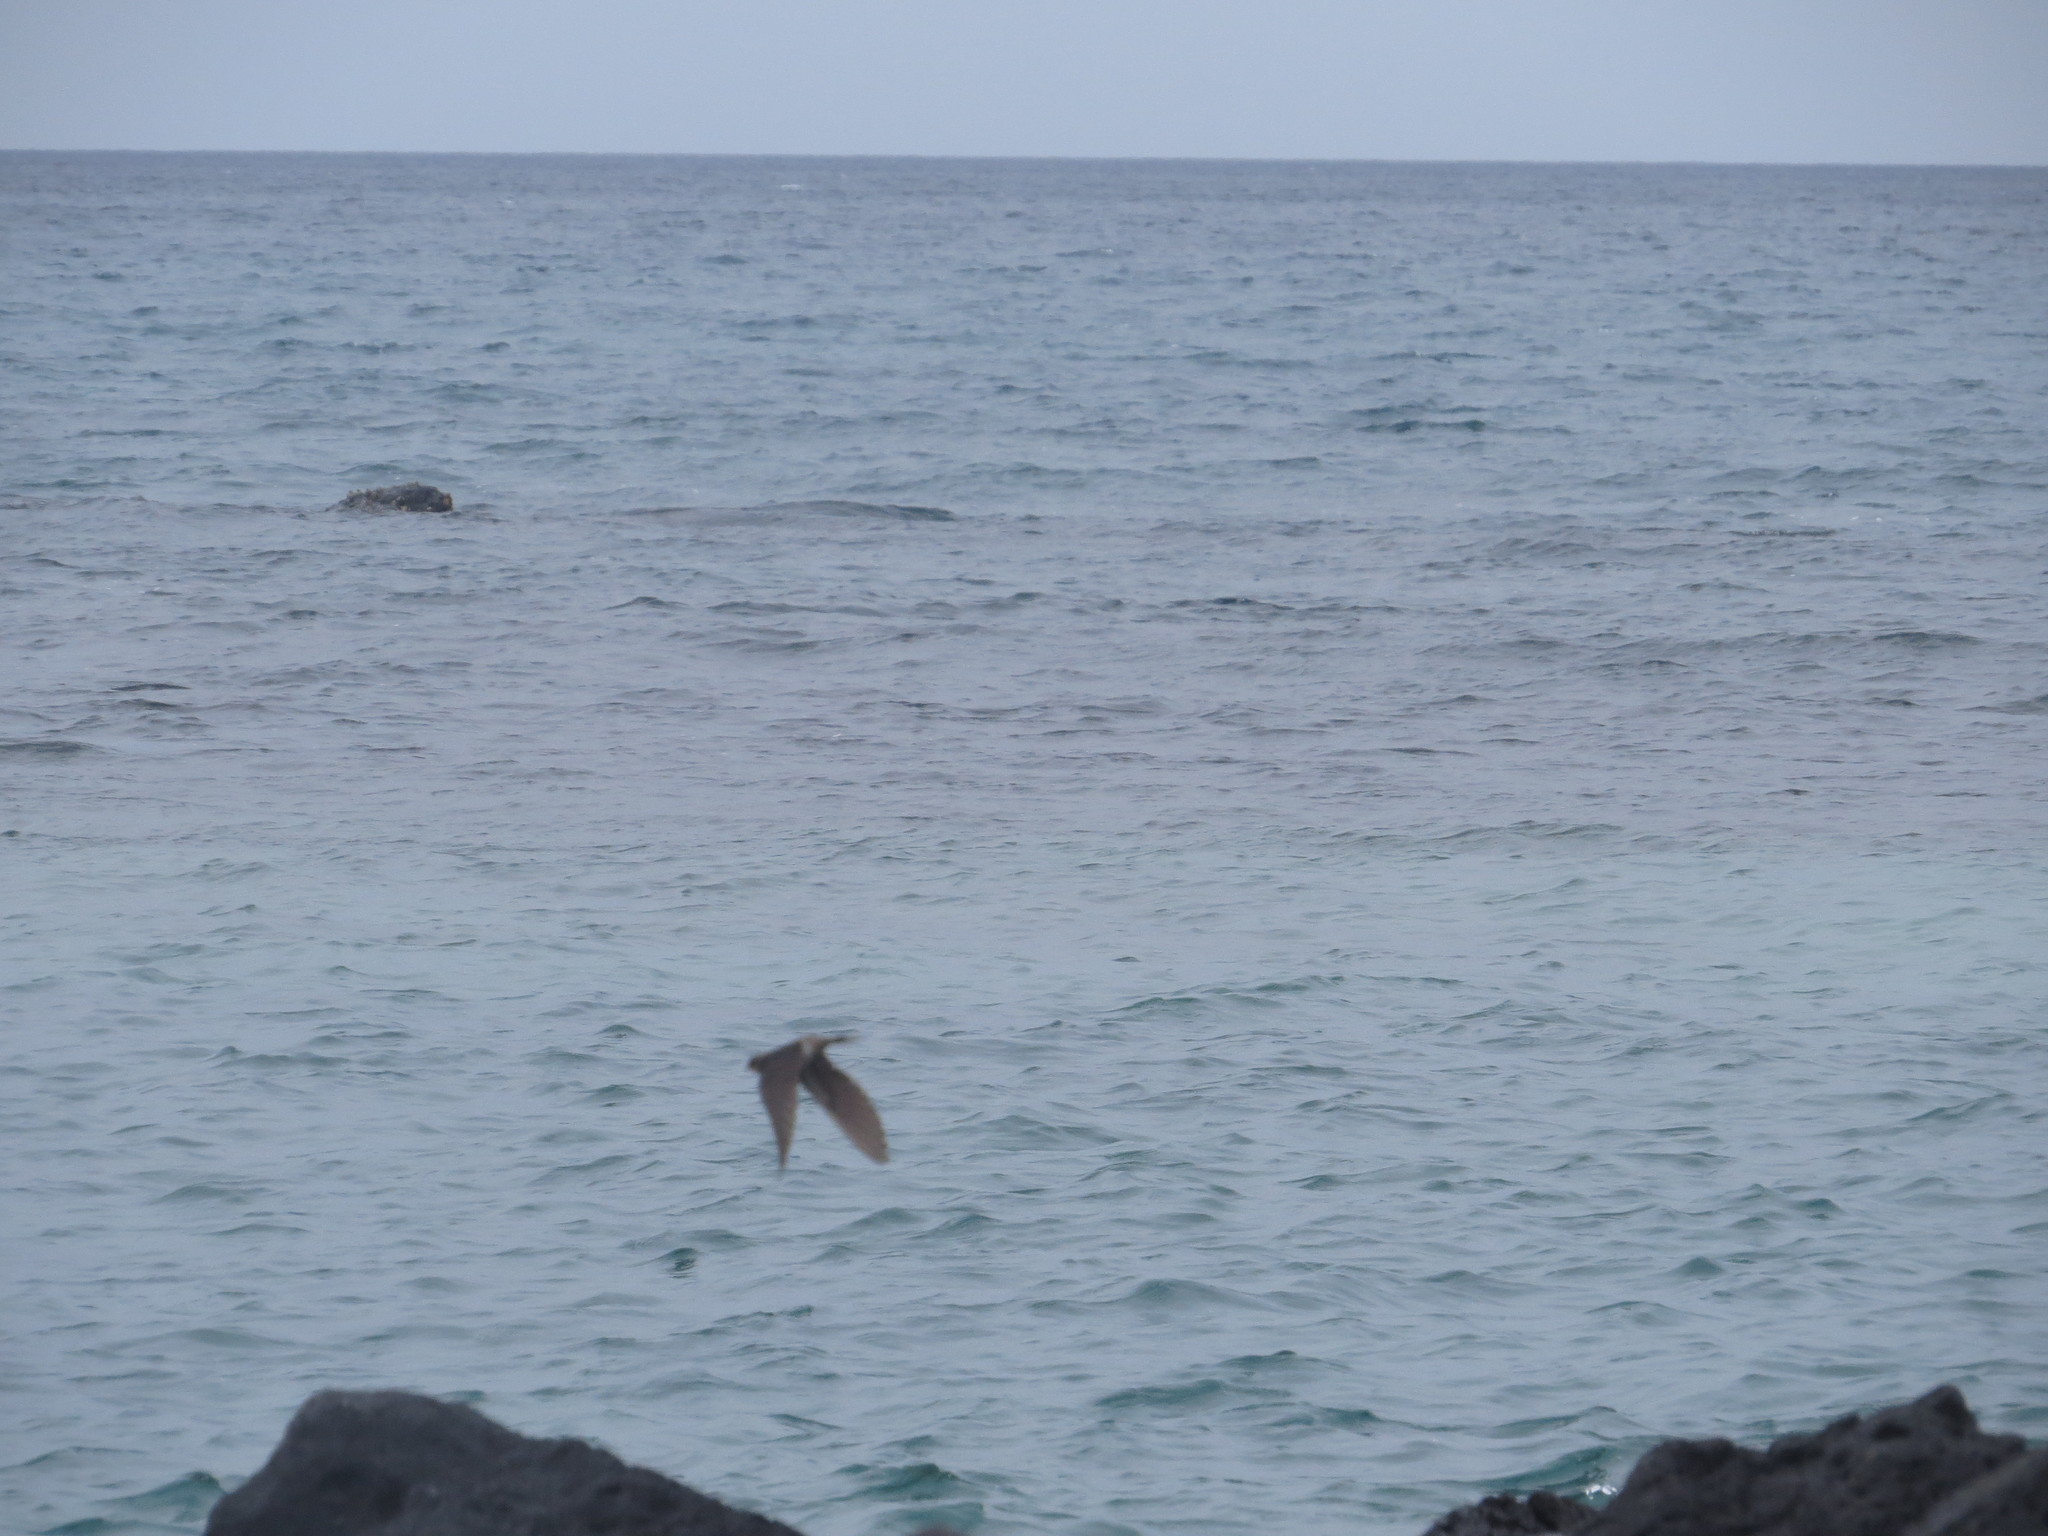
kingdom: Animalia
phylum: Chordata
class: Aves
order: Passeriformes
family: Hirundinidae
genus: Hirundo
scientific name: Hirundo rustica
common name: Barn swallow
